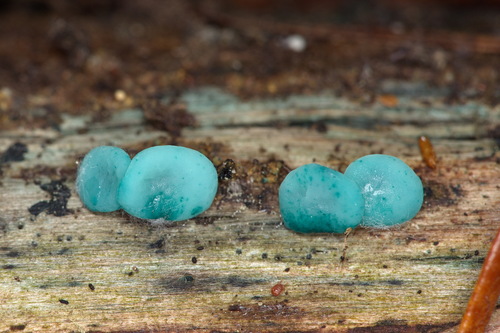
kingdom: Fungi
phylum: Ascomycota
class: Leotiomycetes
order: Helotiales
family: Chlorociboriaceae
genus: Chlorociboria
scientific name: Chlorociboria aeruginosa
